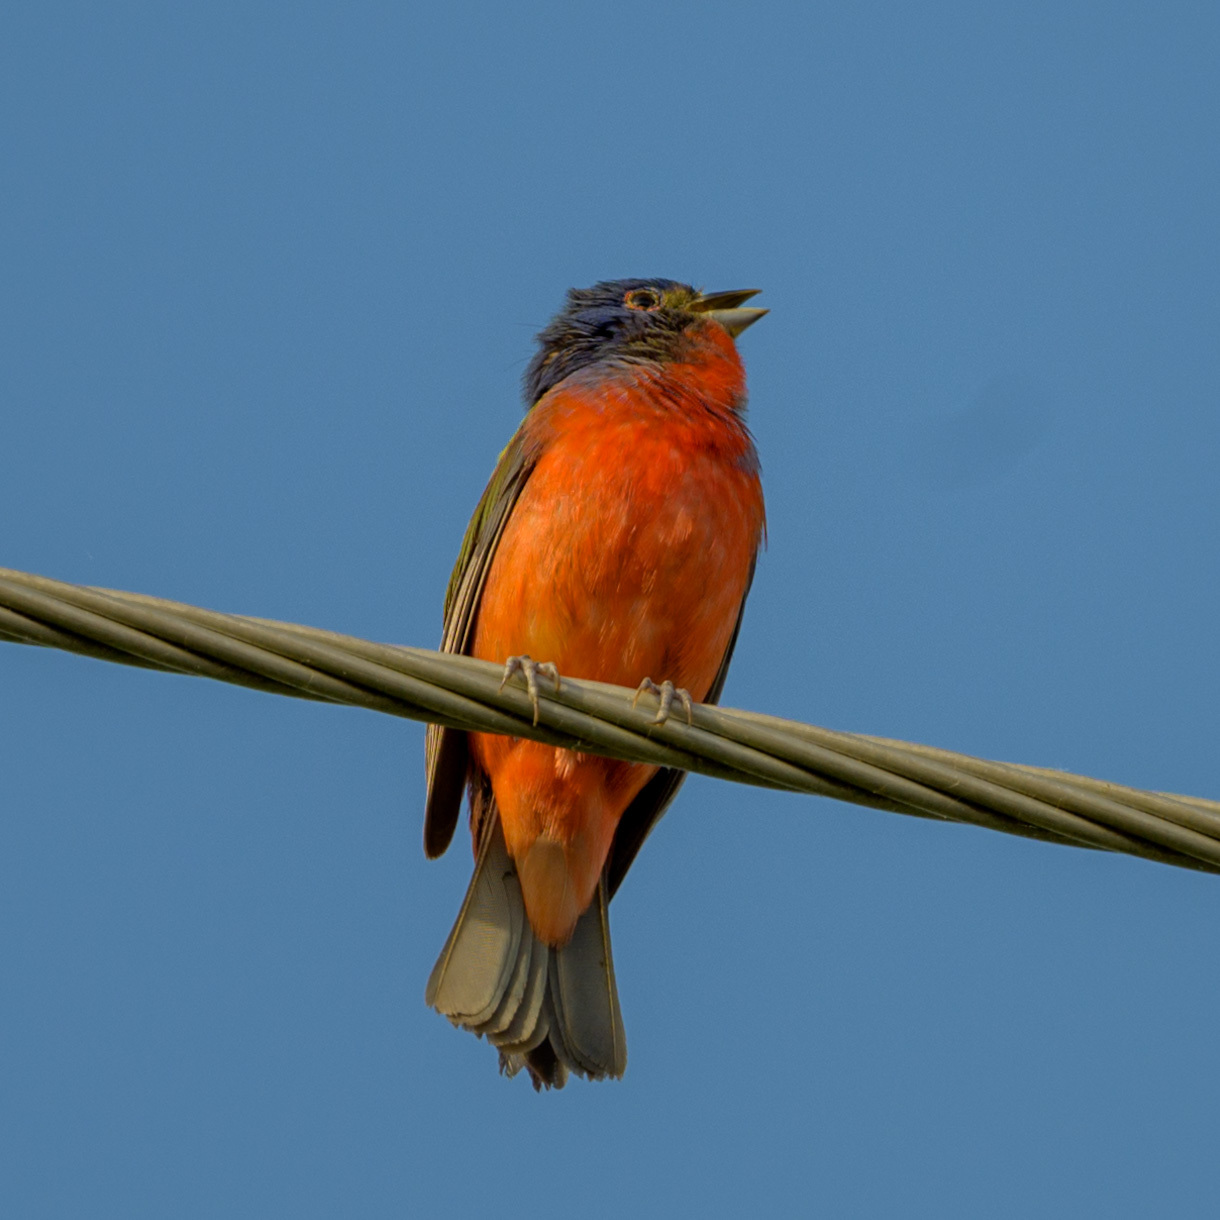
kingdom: Animalia
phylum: Chordata
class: Aves
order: Passeriformes
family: Cardinalidae
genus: Passerina
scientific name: Passerina ciris
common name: Painted bunting
